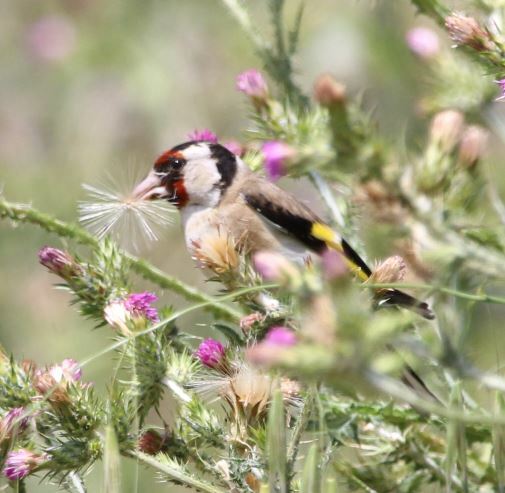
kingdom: Animalia
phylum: Chordata
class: Aves
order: Passeriformes
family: Fringillidae
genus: Carduelis
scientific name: Carduelis carduelis
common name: European goldfinch
